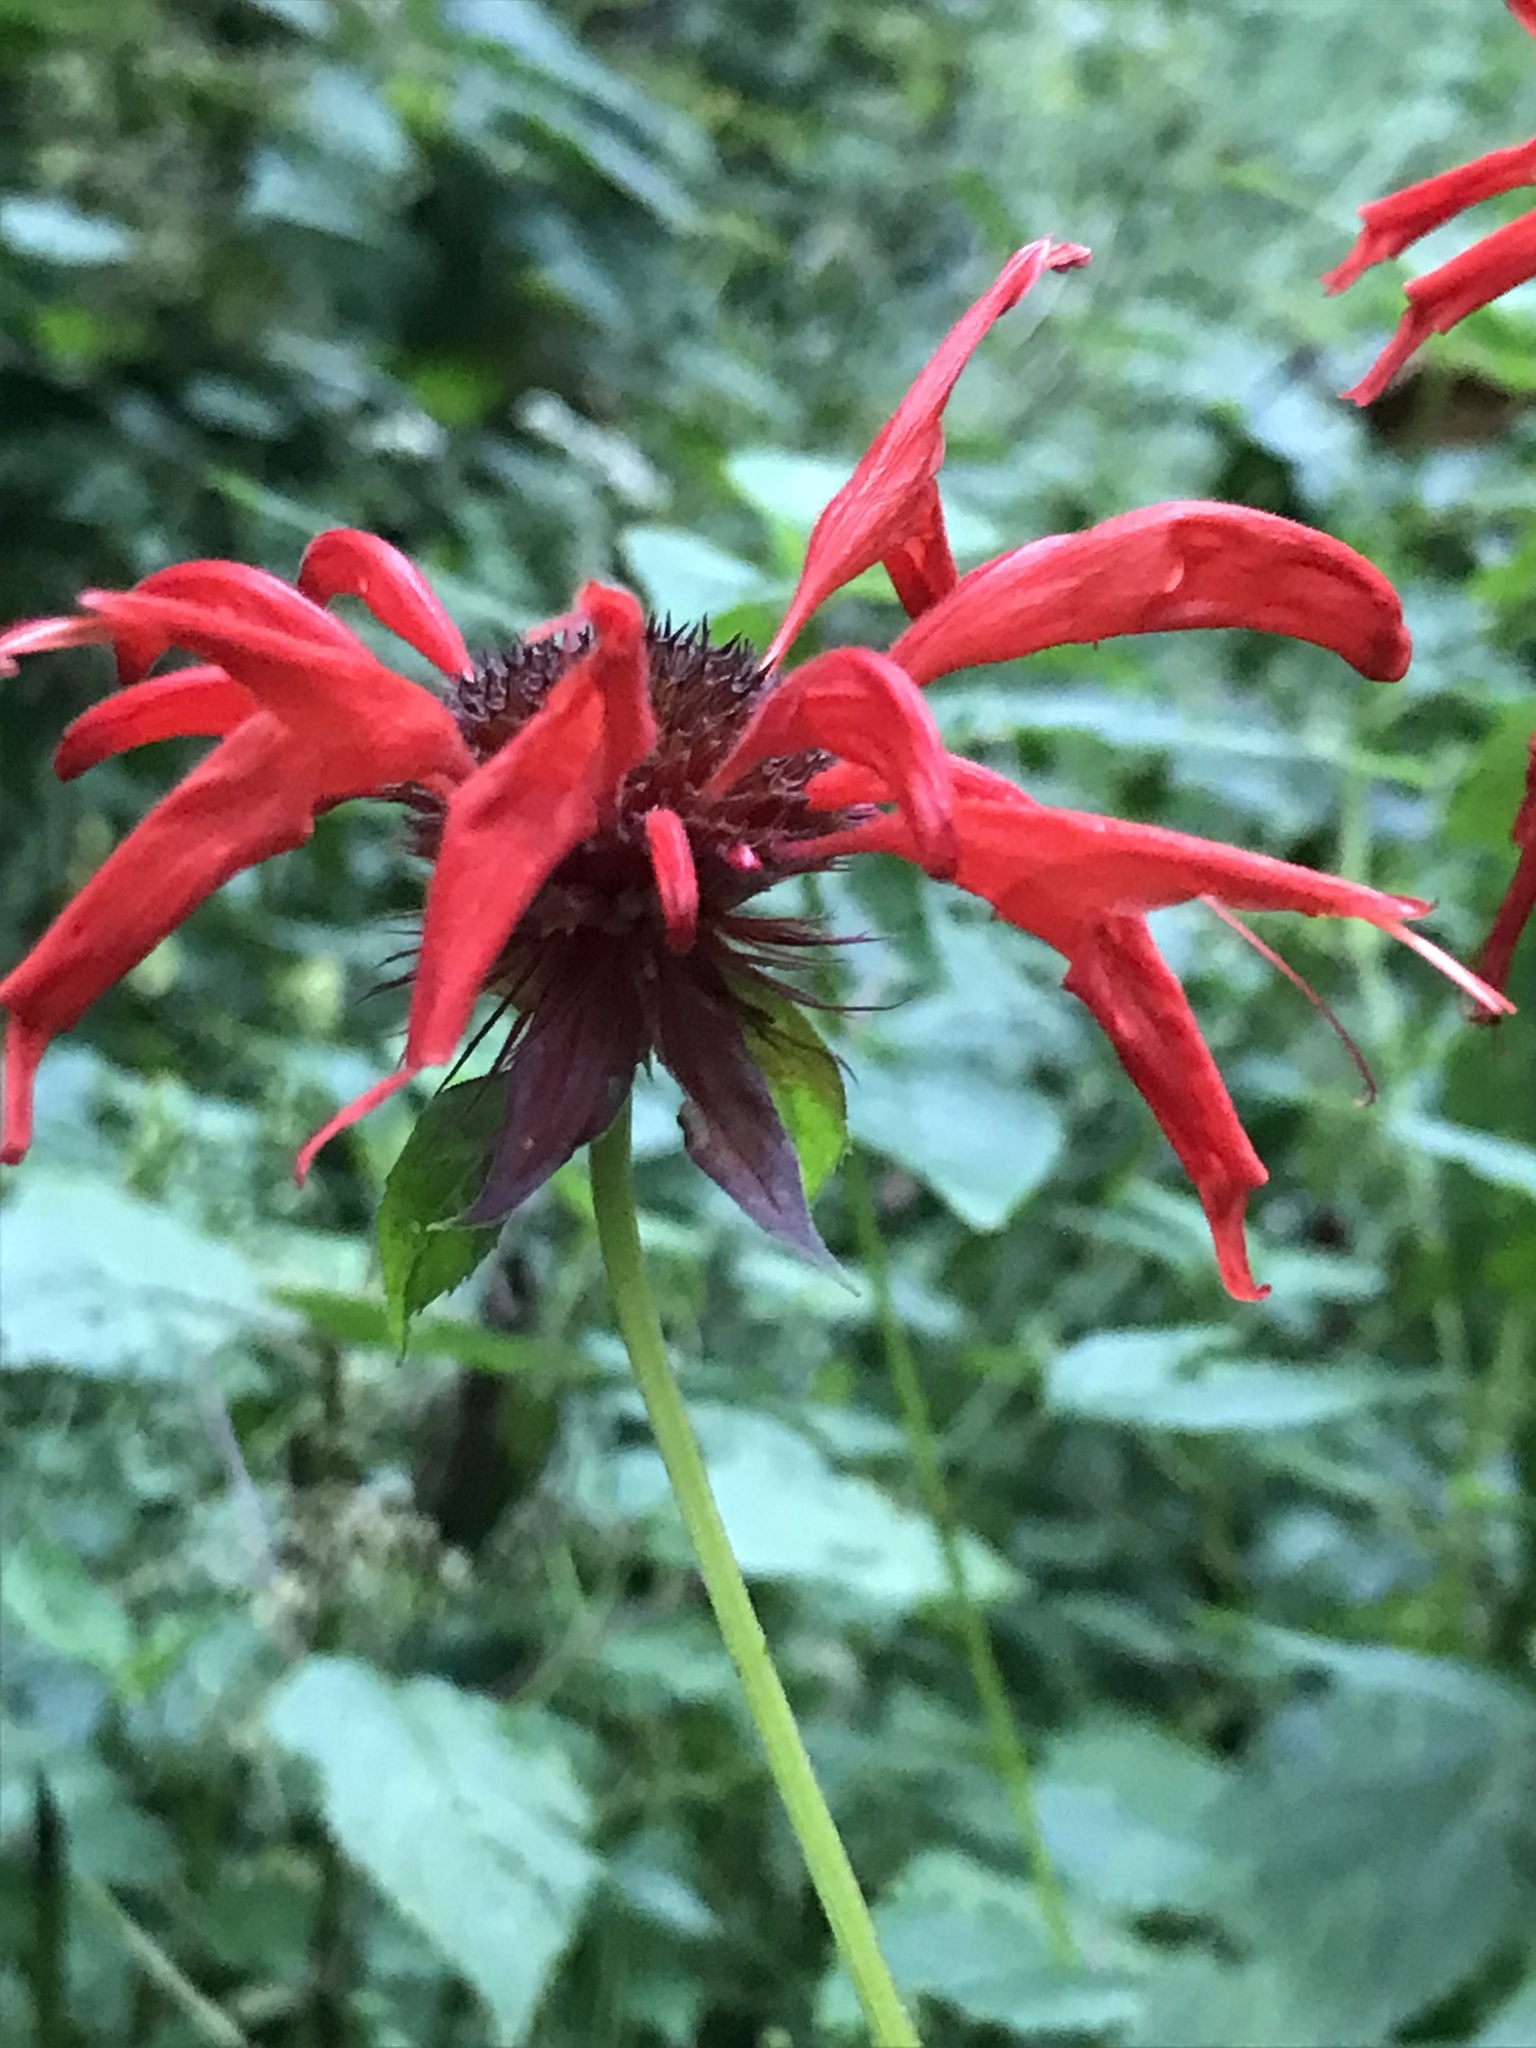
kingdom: Plantae
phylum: Tracheophyta
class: Magnoliopsida
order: Lamiales
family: Lamiaceae
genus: Monarda
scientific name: Monarda didyma
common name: Beebalm
